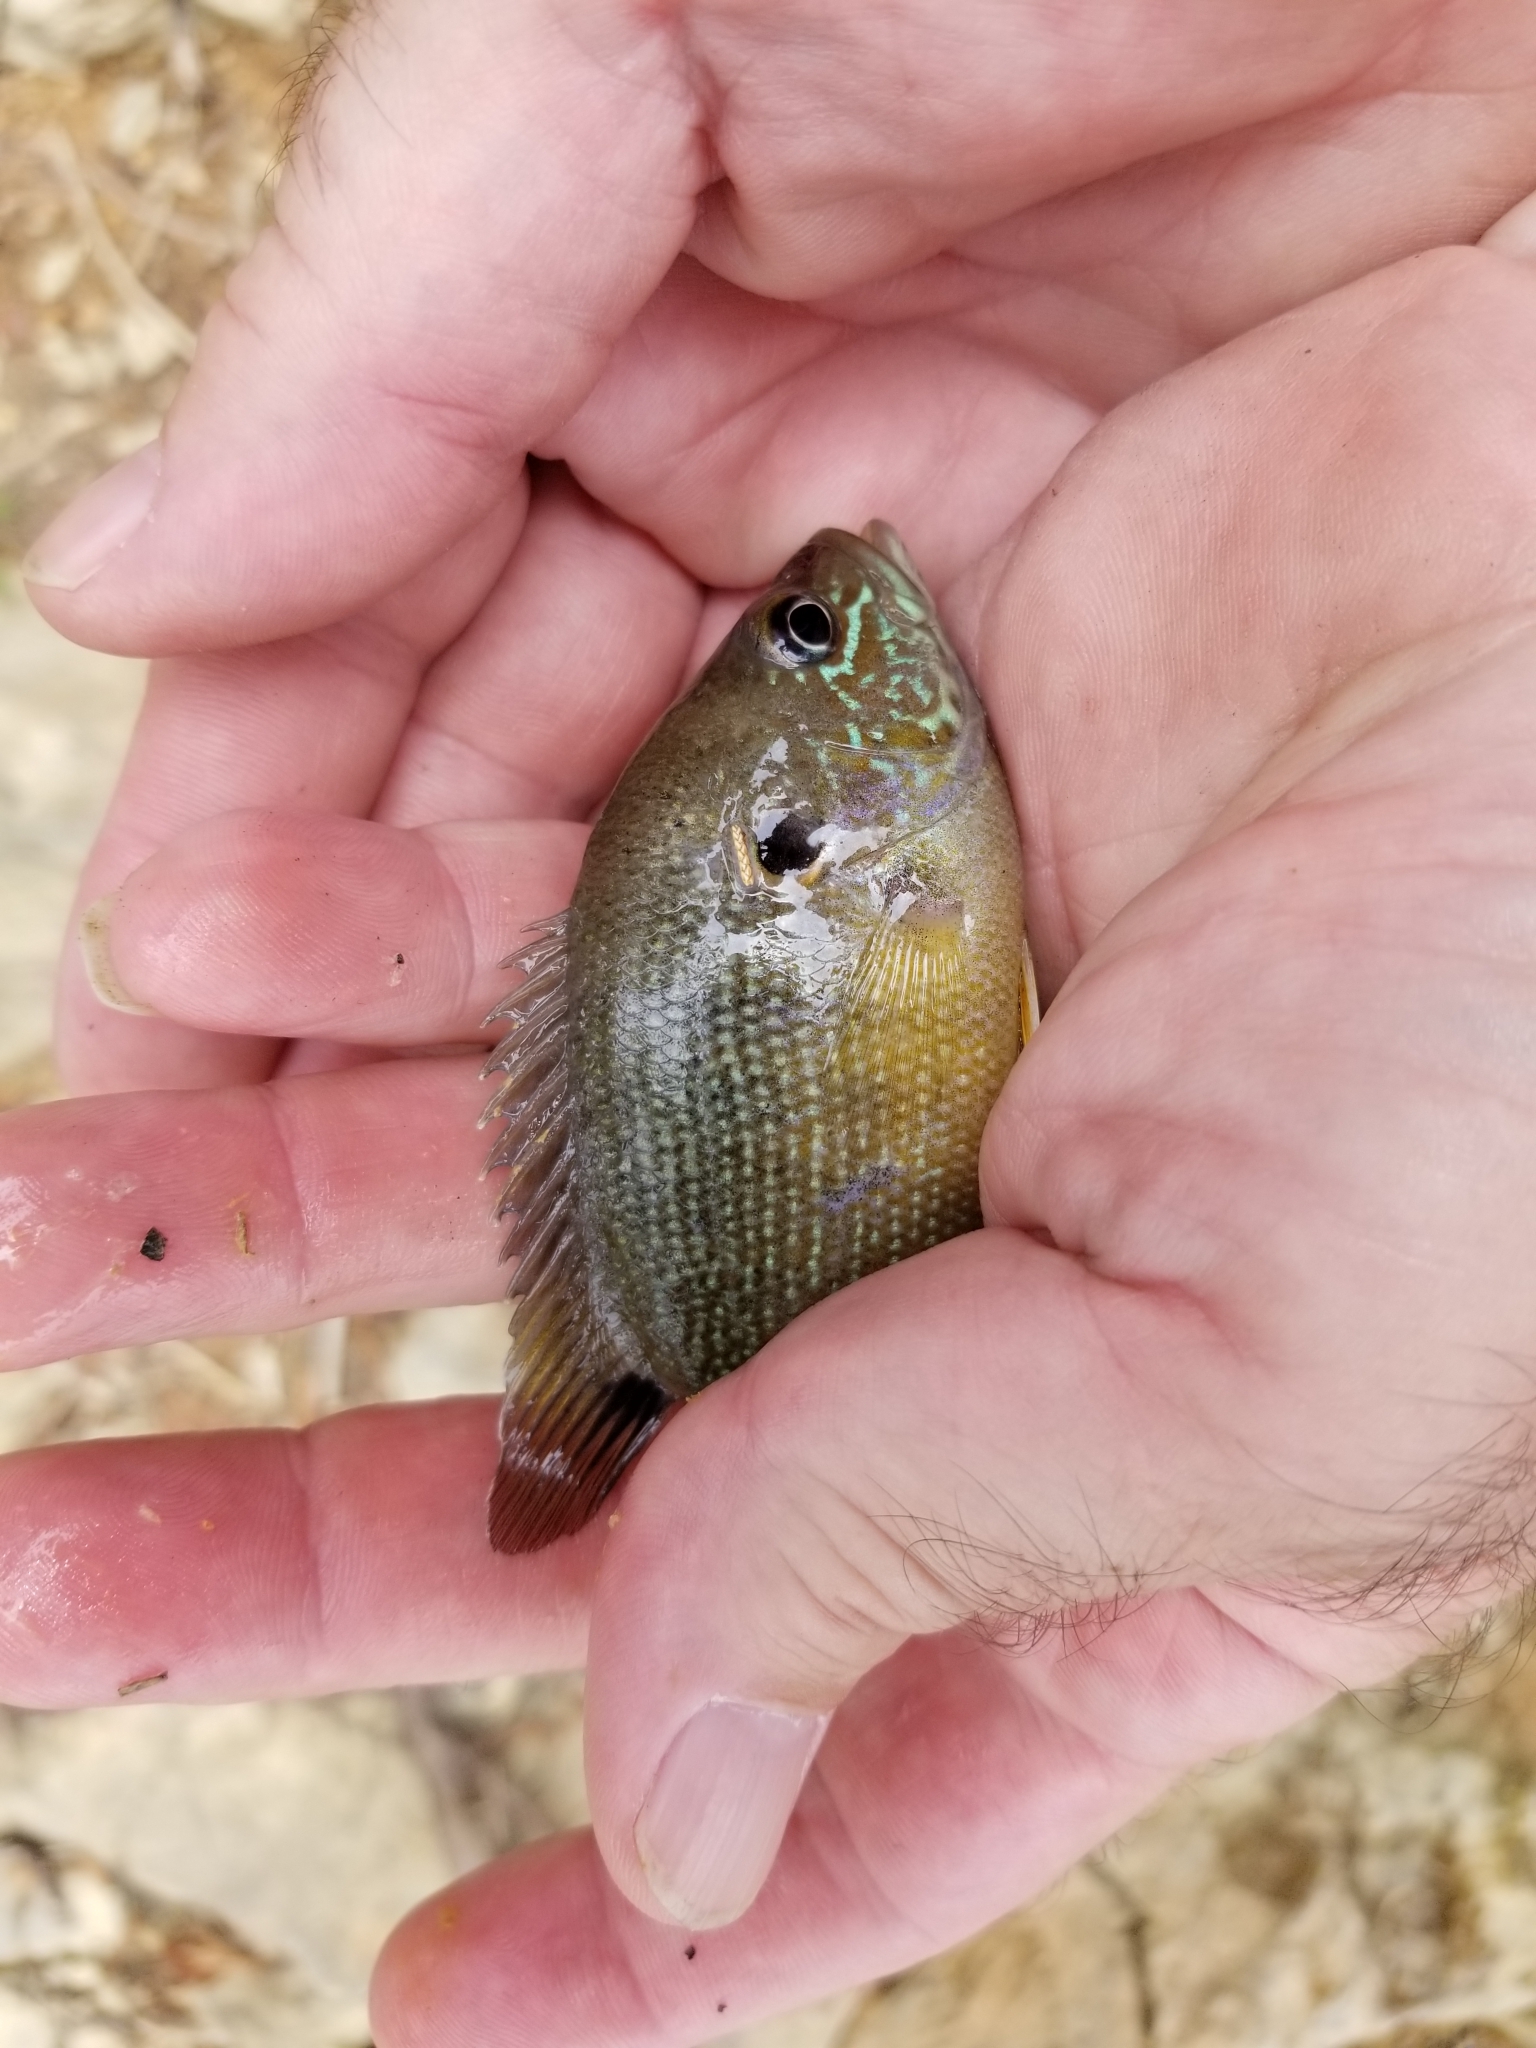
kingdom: Animalia
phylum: Chordata
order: Perciformes
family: Centrarchidae
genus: Lepomis
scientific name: Lepomis cyanellus
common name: Green sunfish
